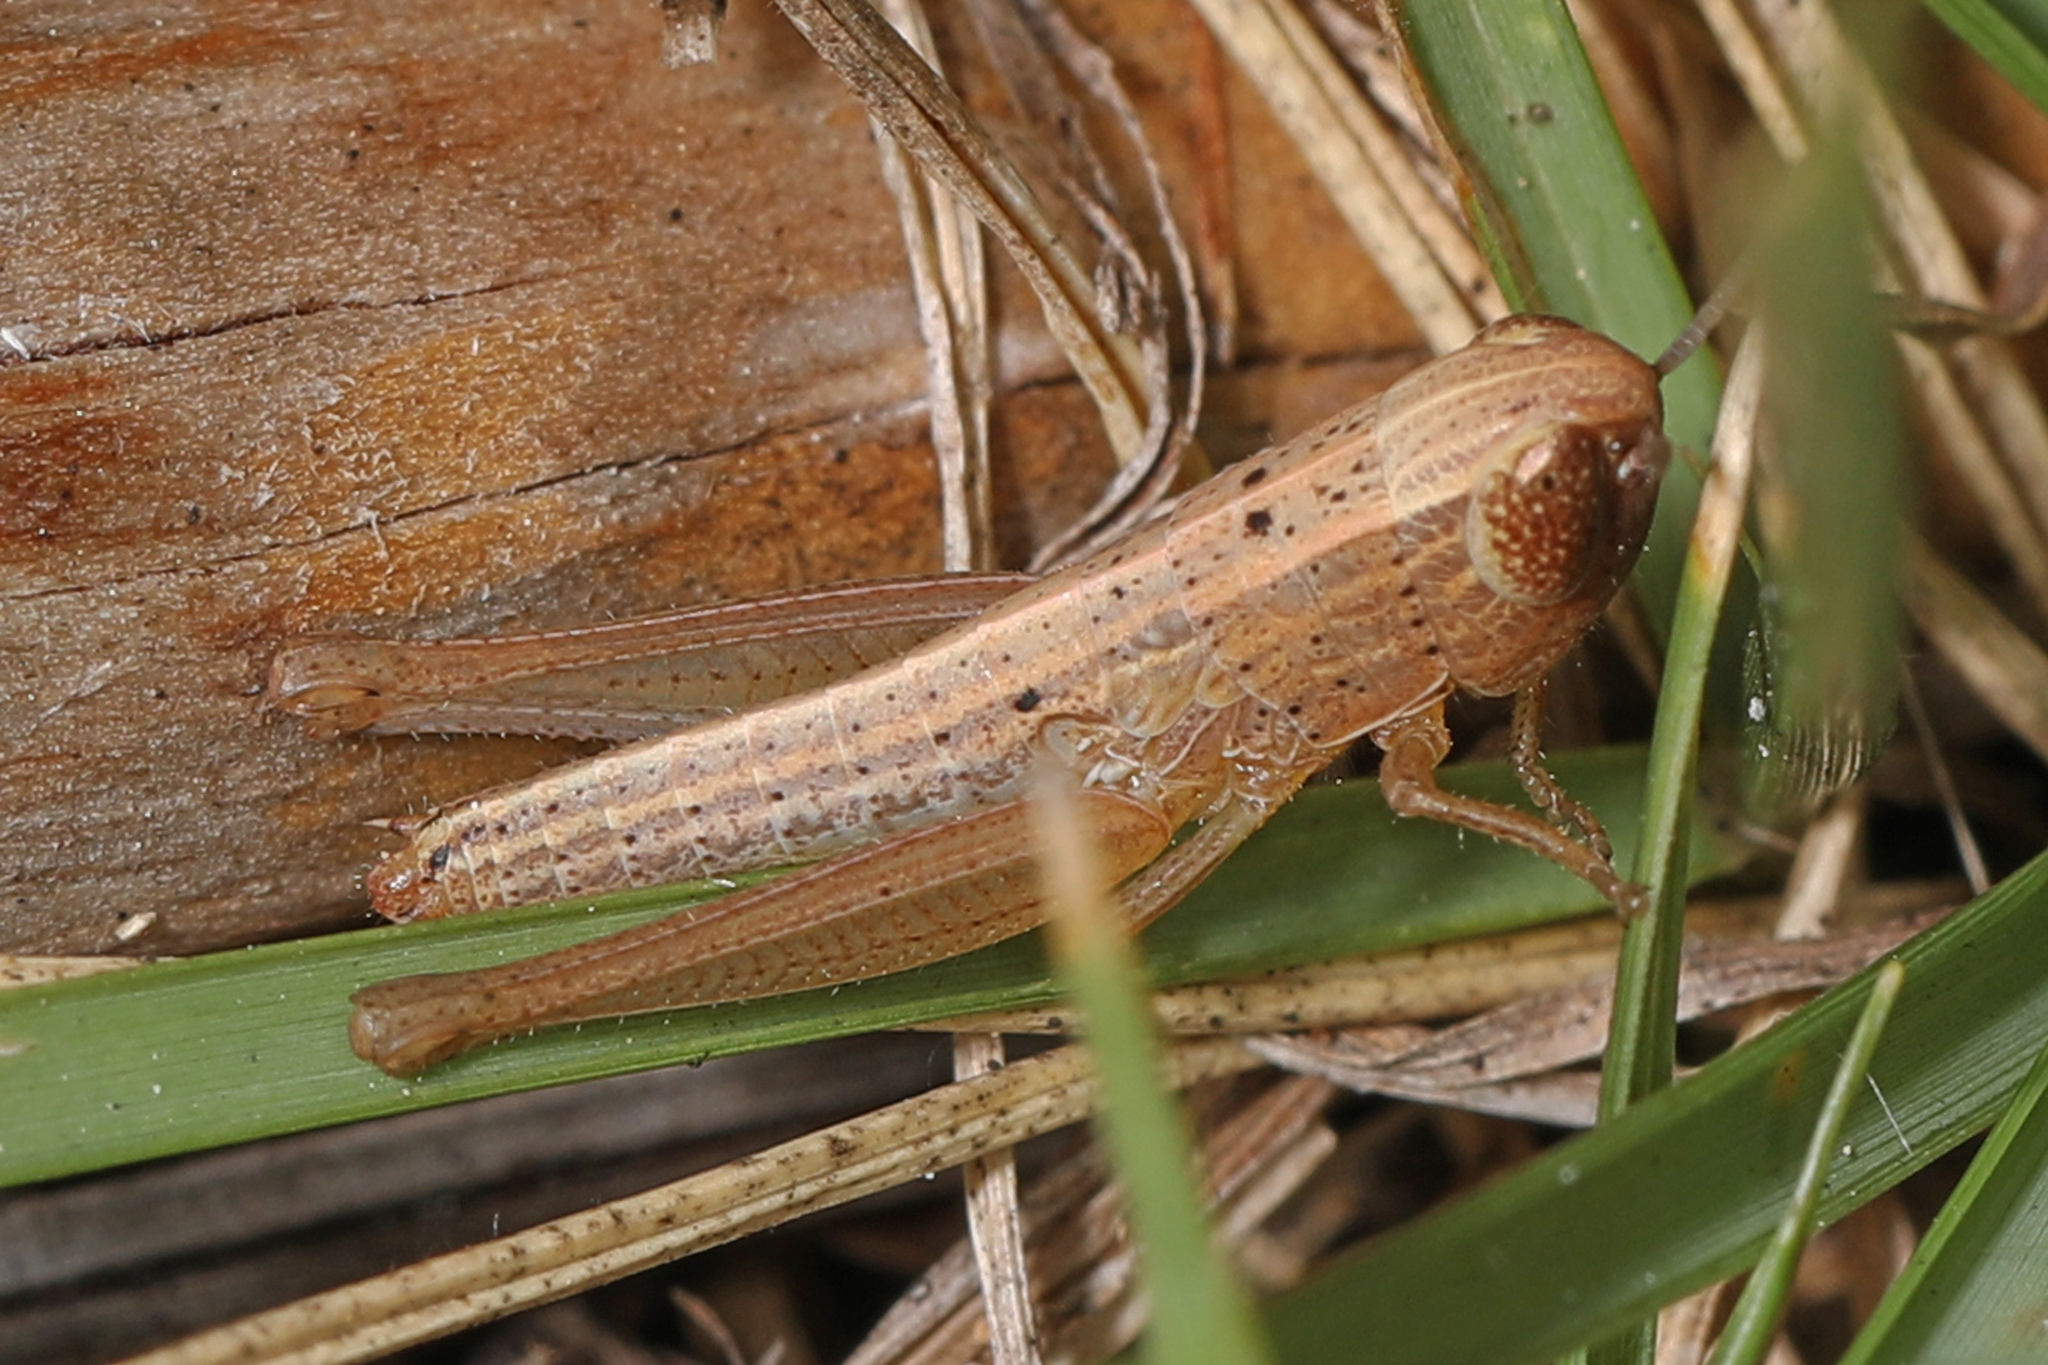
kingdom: Animalia
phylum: Arthropoda
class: Insecta
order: Orthoptera
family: Acrididae
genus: Amblytropidia
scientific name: Amblytropidia mysteca
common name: Brown winter grasshopper
